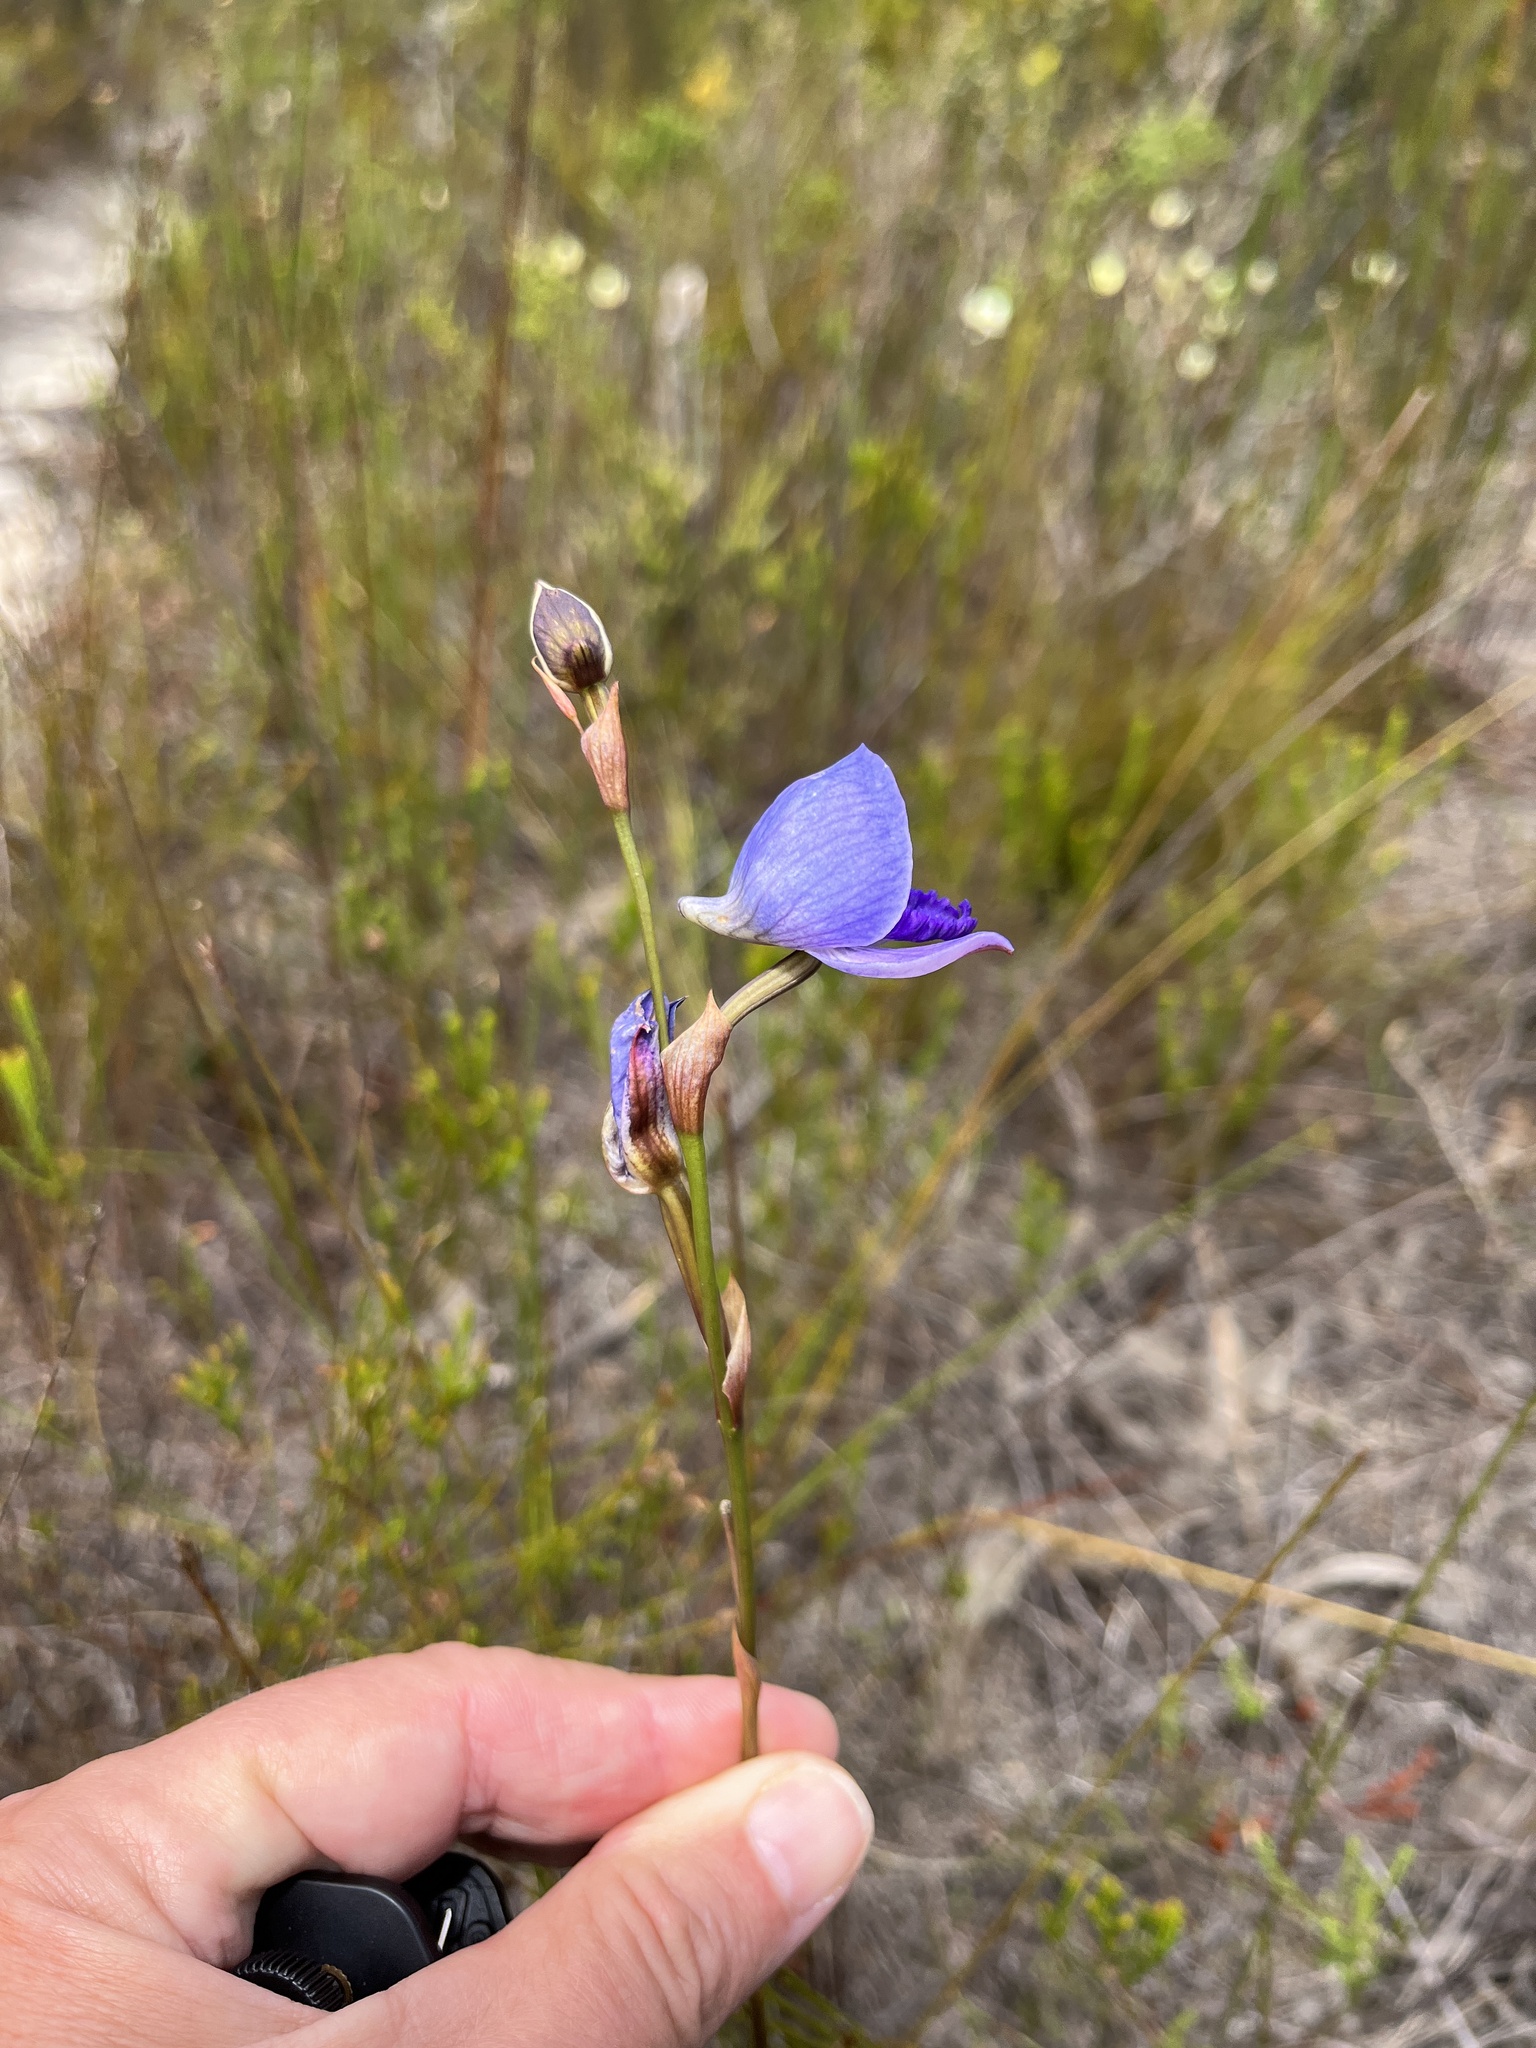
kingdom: Plantae
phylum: Tracheophyta
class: Liliopsida
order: Asparagales
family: Orchidaceae
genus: Disa
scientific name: Disa purpurascens
